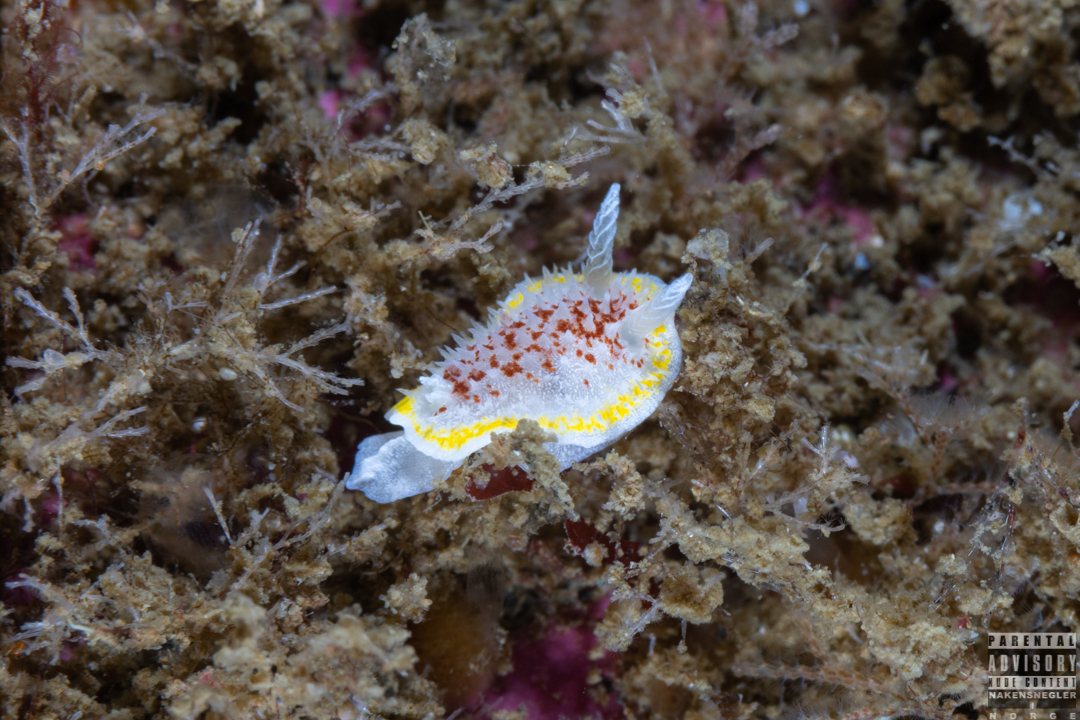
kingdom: Animalia
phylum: Mollusca
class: Gastropoda
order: Nudibranchia
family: Calycidorididae
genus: Diaphorodoris
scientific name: Diaphorodoris luteocincta
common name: Fried egg nudibranch
